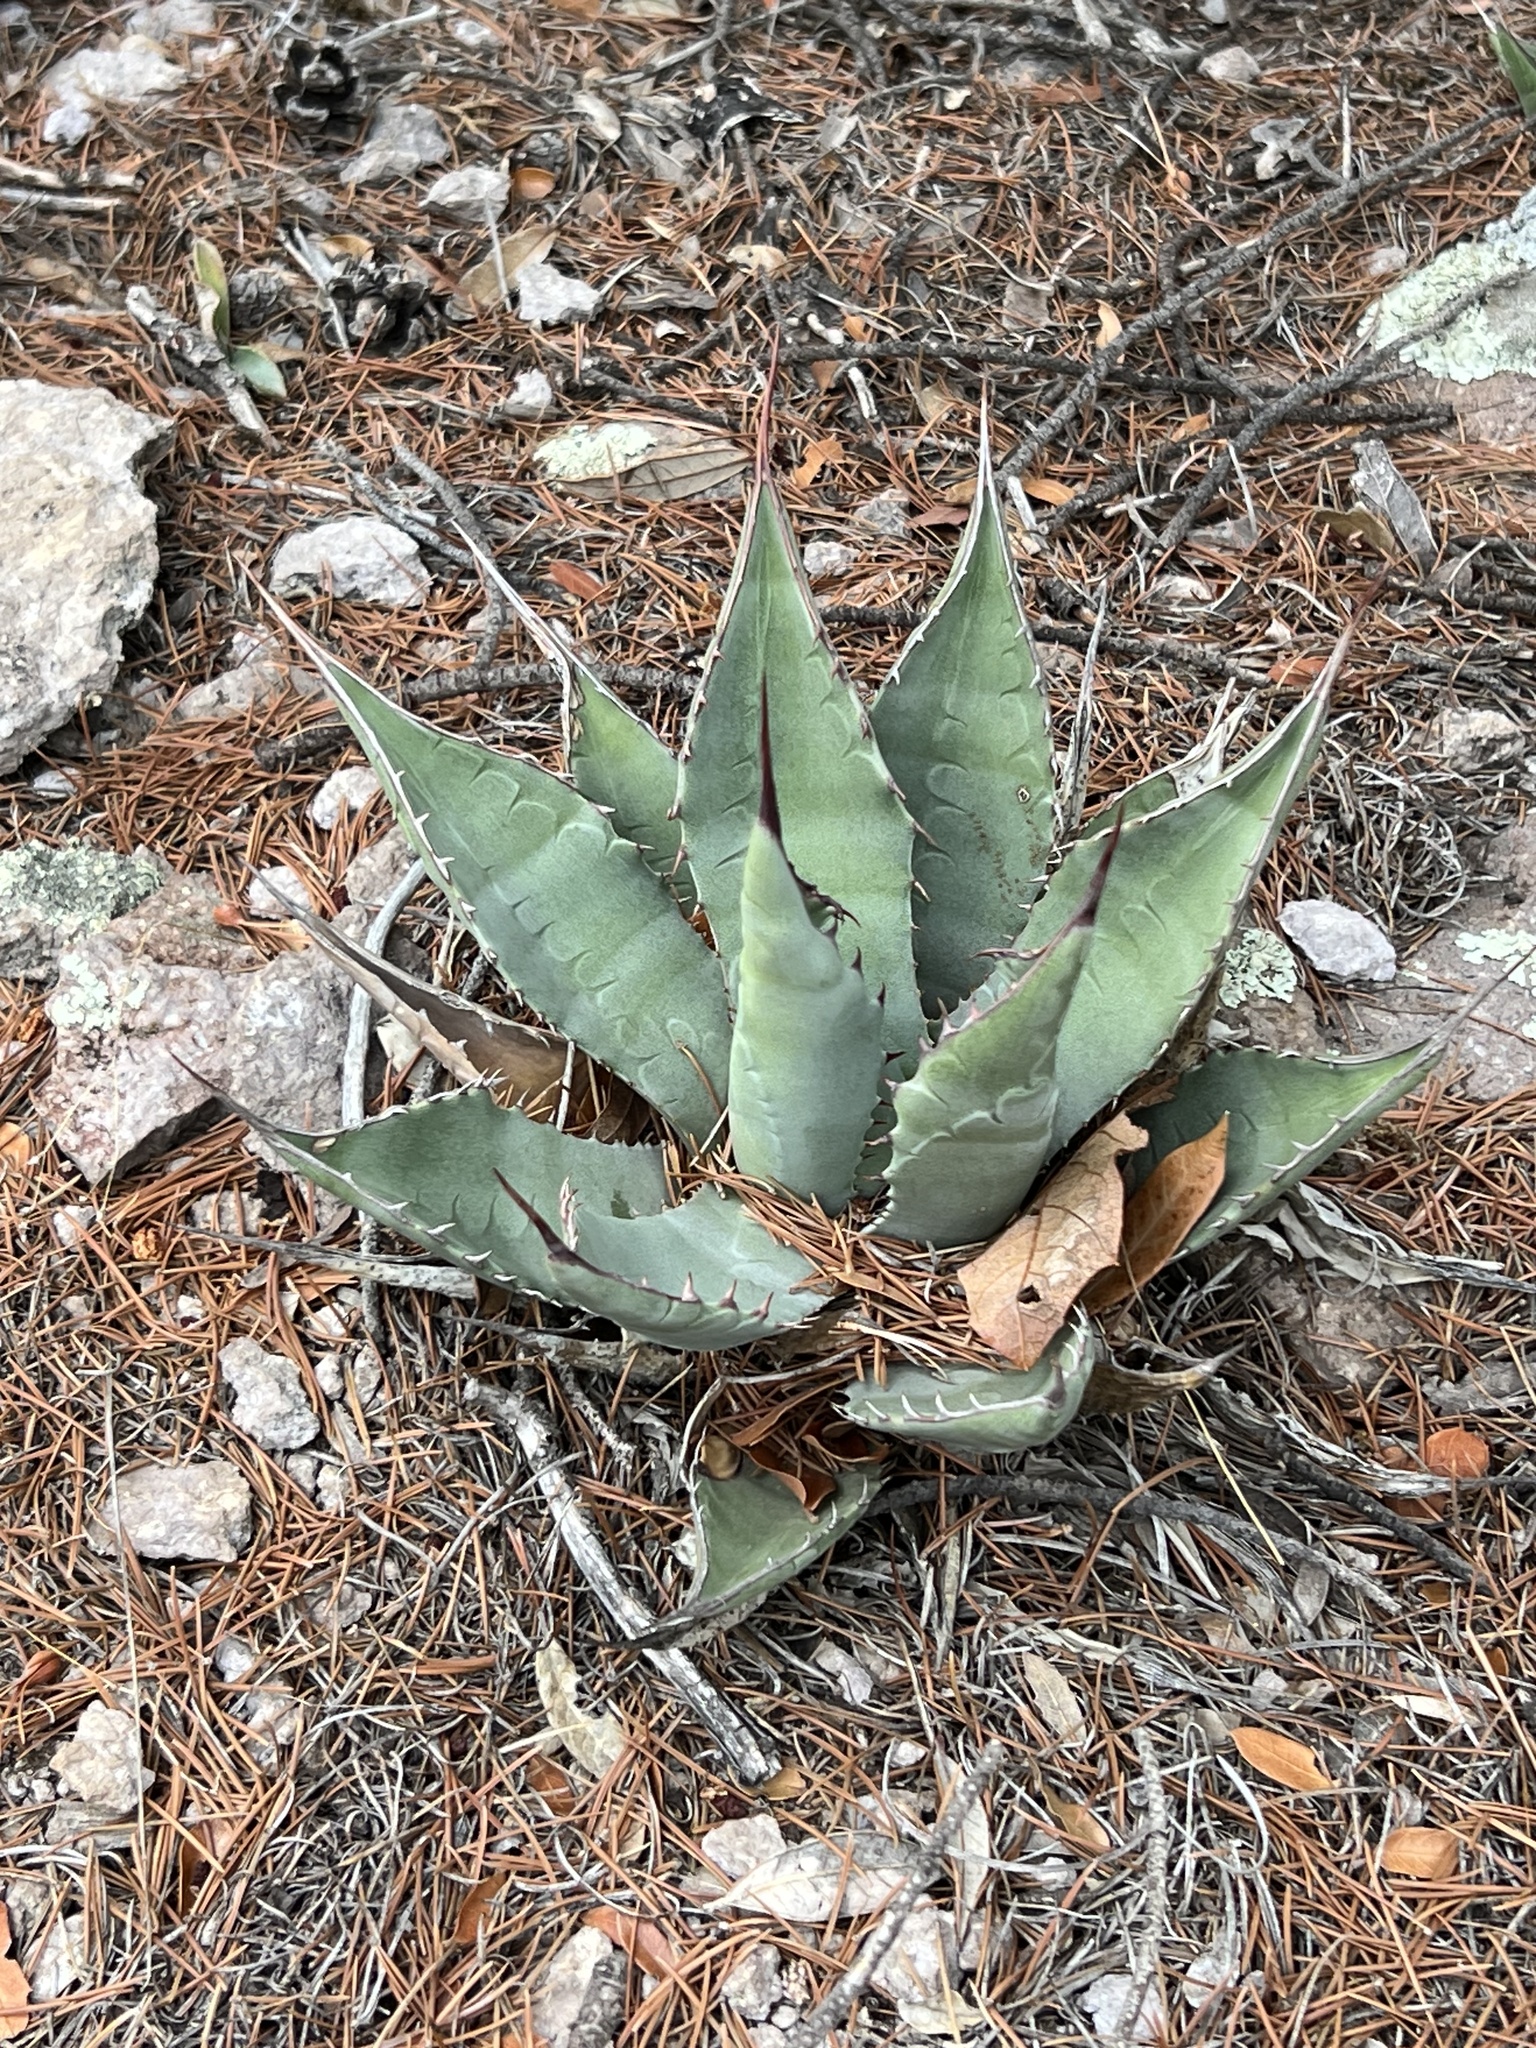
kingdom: Plantae
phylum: Tracheophyta
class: Liliopsida
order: Asparagales
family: Asparagaceae
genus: Agave
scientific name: Agave palmeri
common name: Palmer agave
